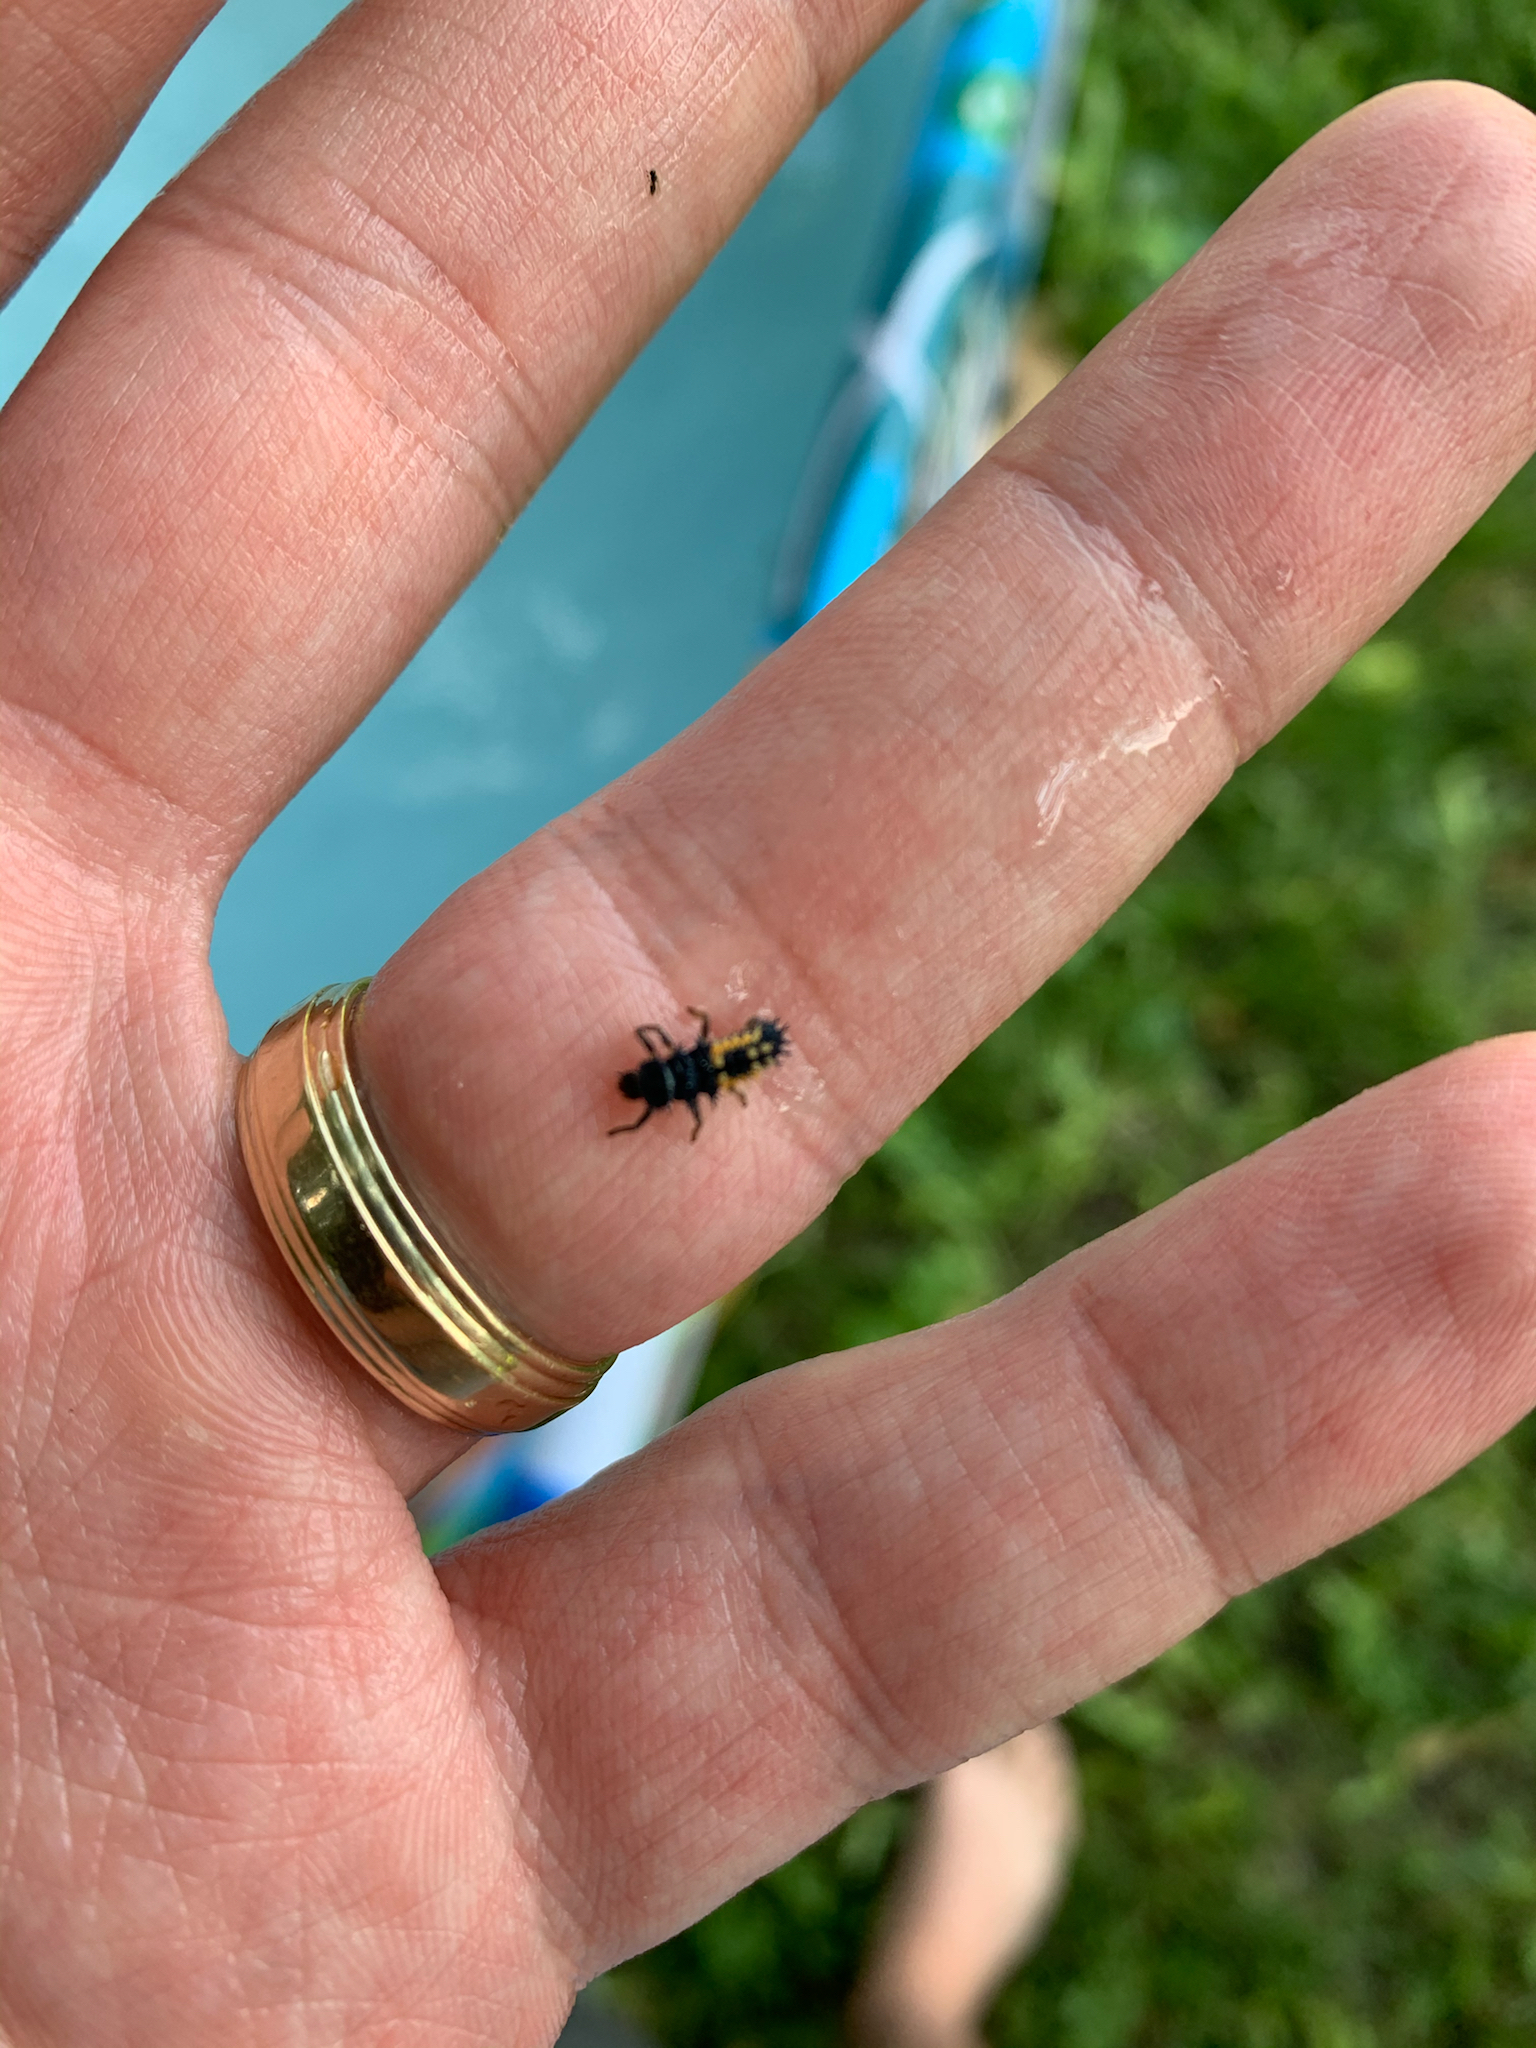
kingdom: Animalia
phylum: Arthropoda
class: Insecta
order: Coleoptera
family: Coccinellidae
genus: Harmonia
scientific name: Harmonia axyridis
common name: Harlequin ladybird
